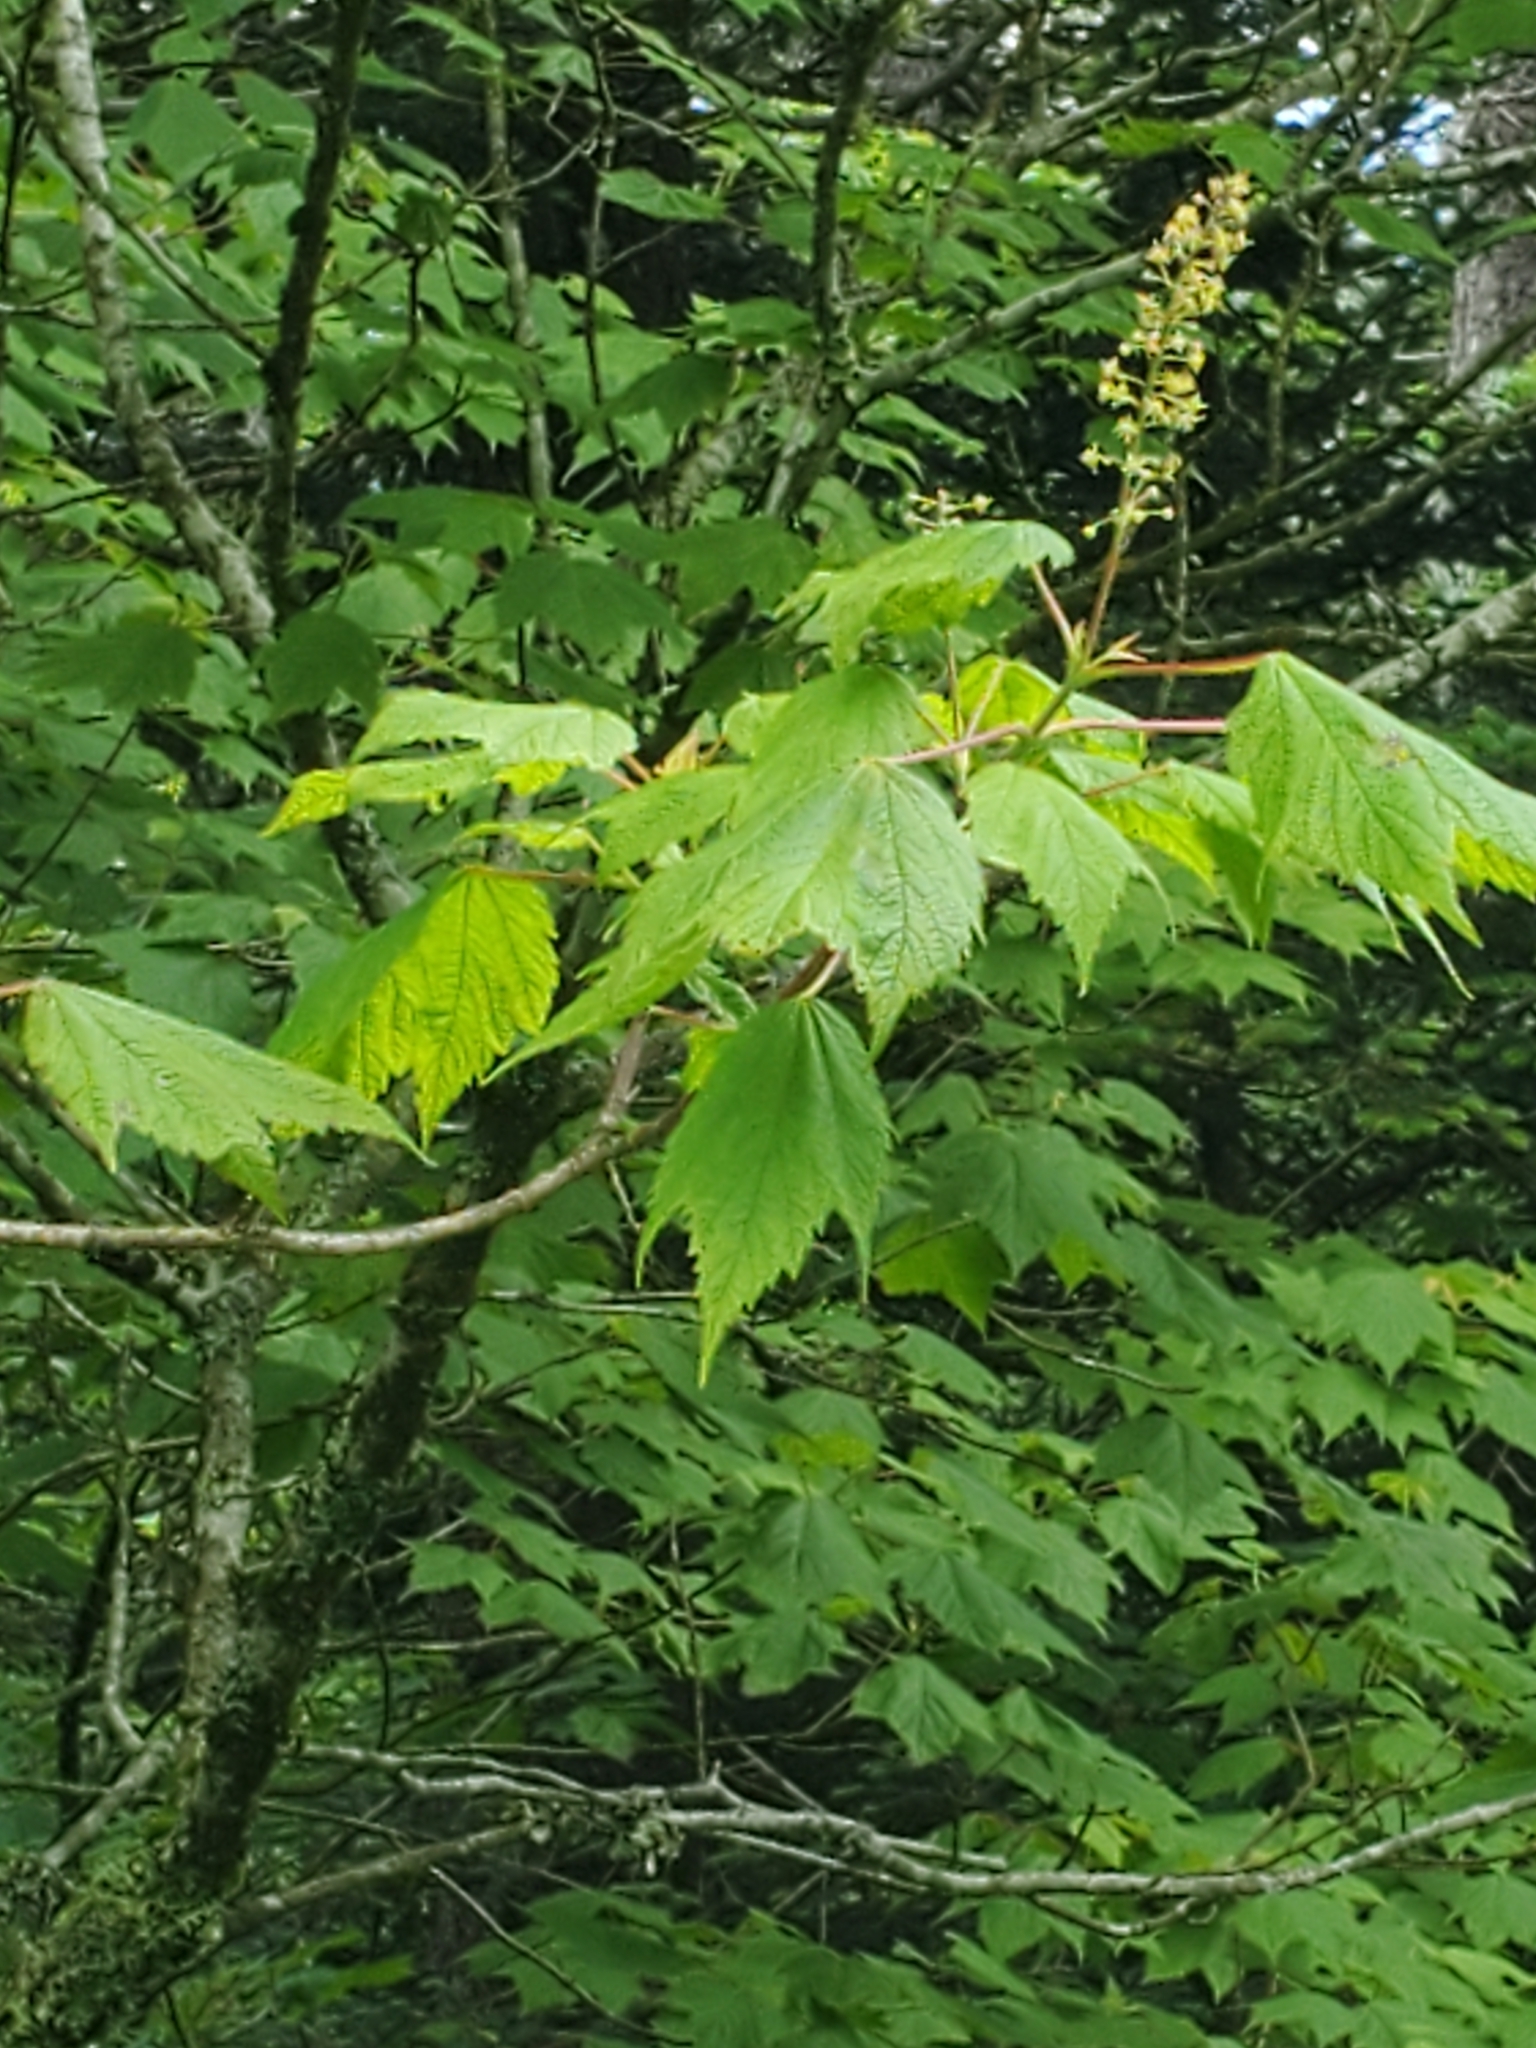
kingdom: Plantae
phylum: Tracheophyta
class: Magnoliopsida
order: Sapindales
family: Sapindaceae
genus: Acer
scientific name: Acer spicatum
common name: Mountain maple
